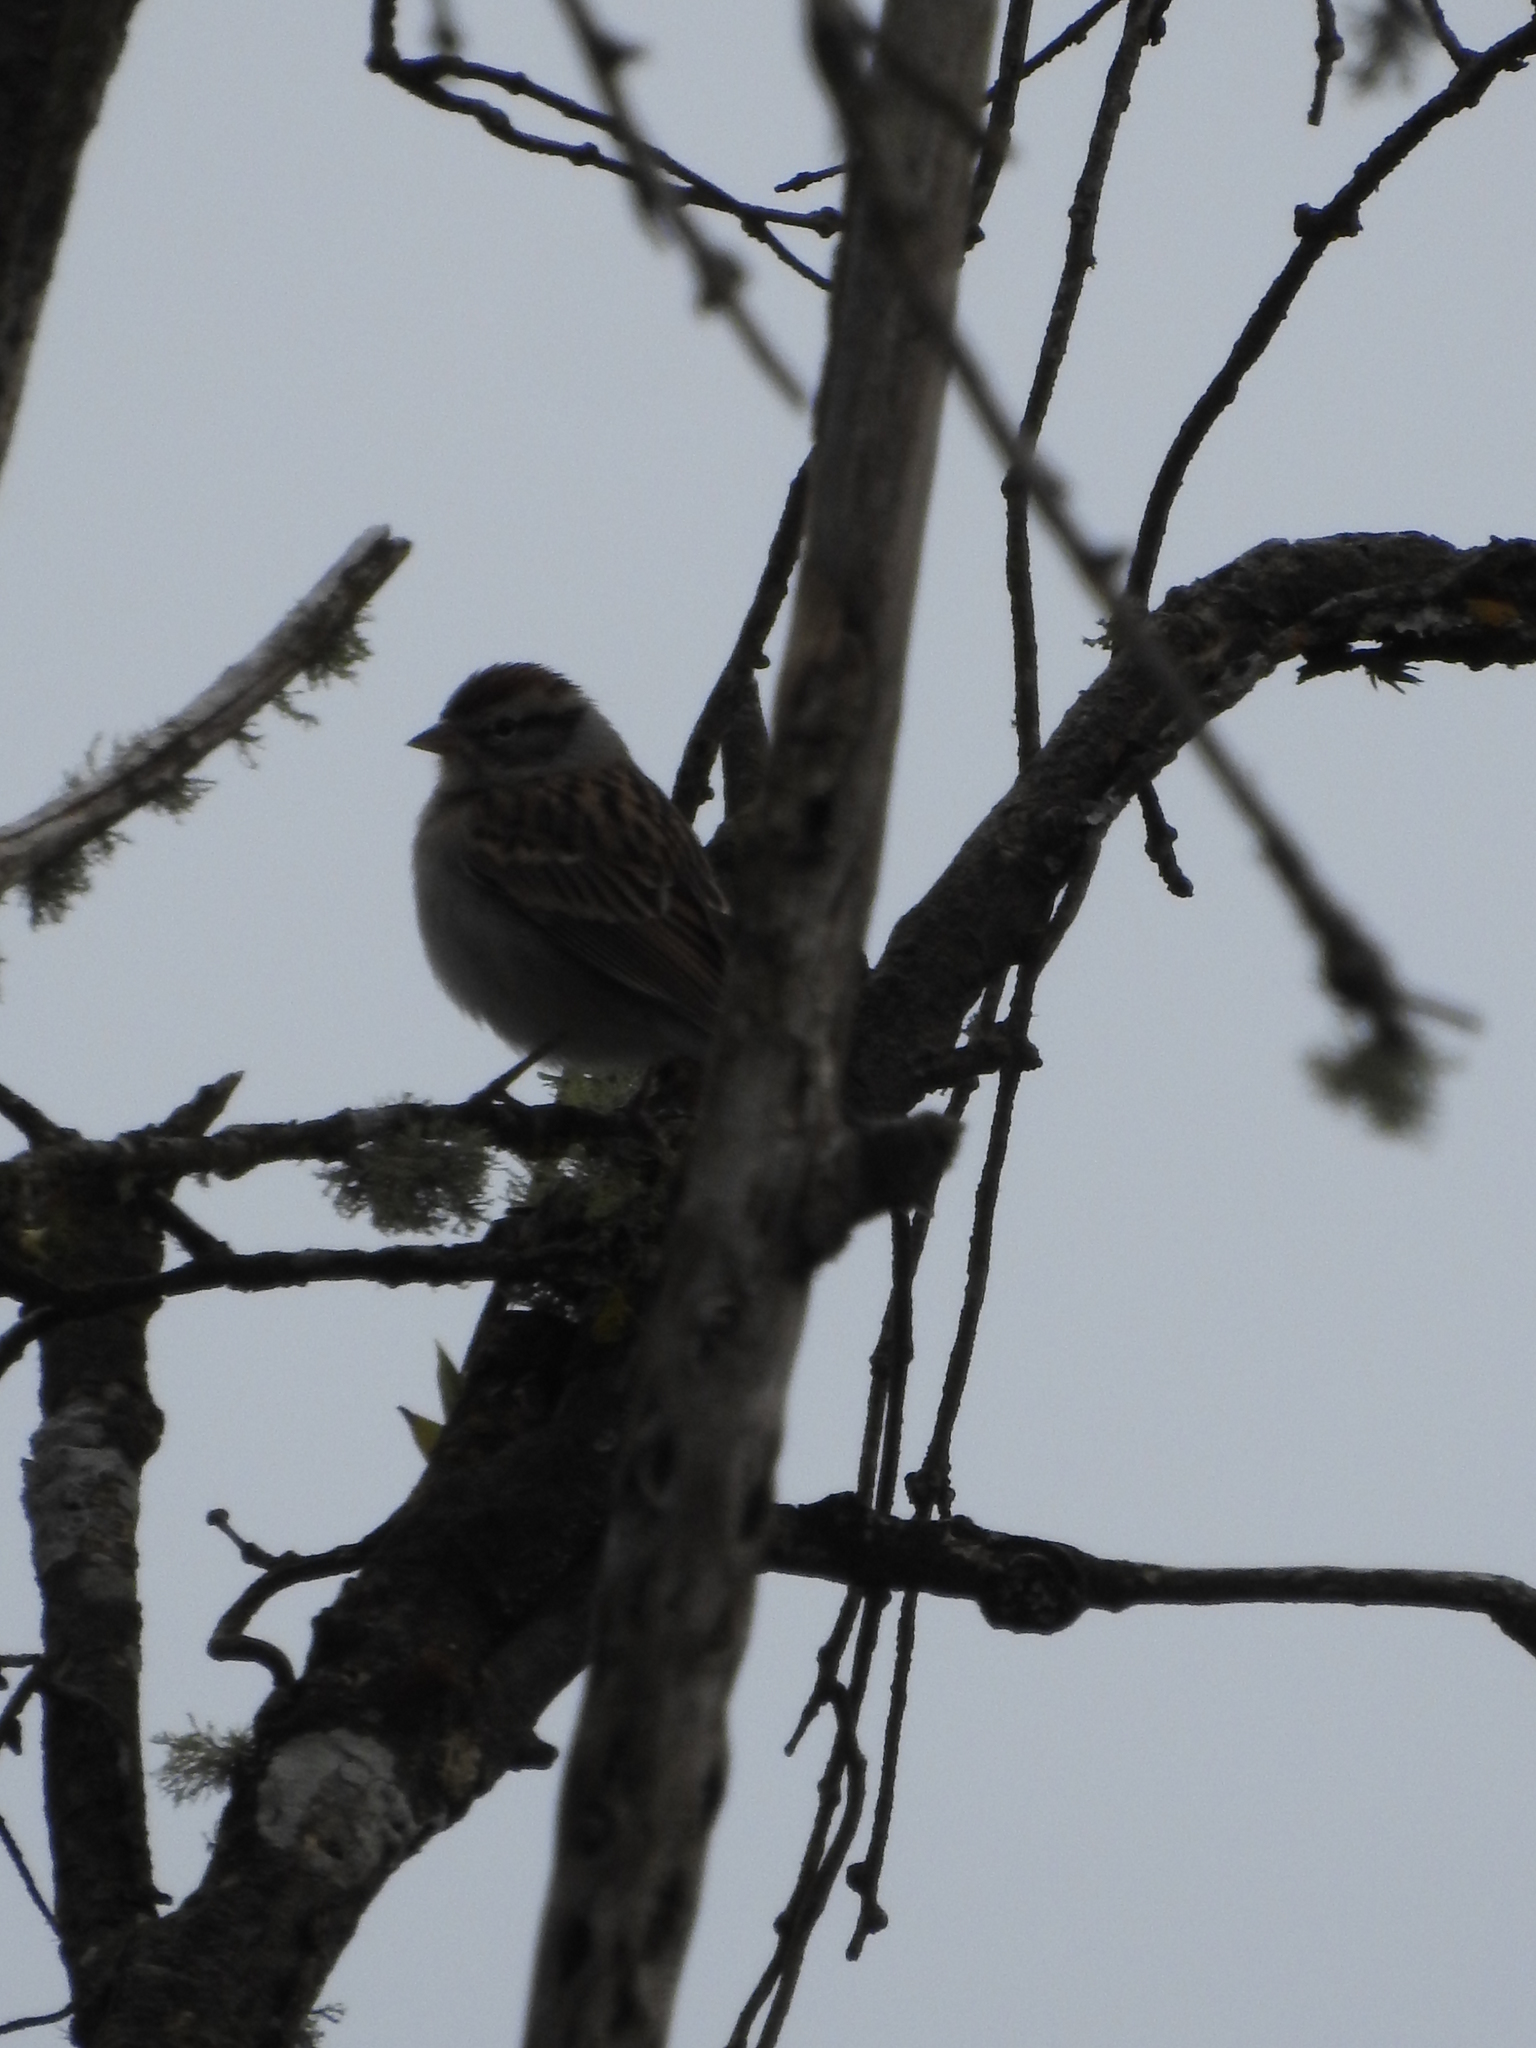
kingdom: Animalia
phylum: Chordata
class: Aves
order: Passeriformes
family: Passerellidae
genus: Spizella
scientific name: Spizella passerina
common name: Chipping sparrow
